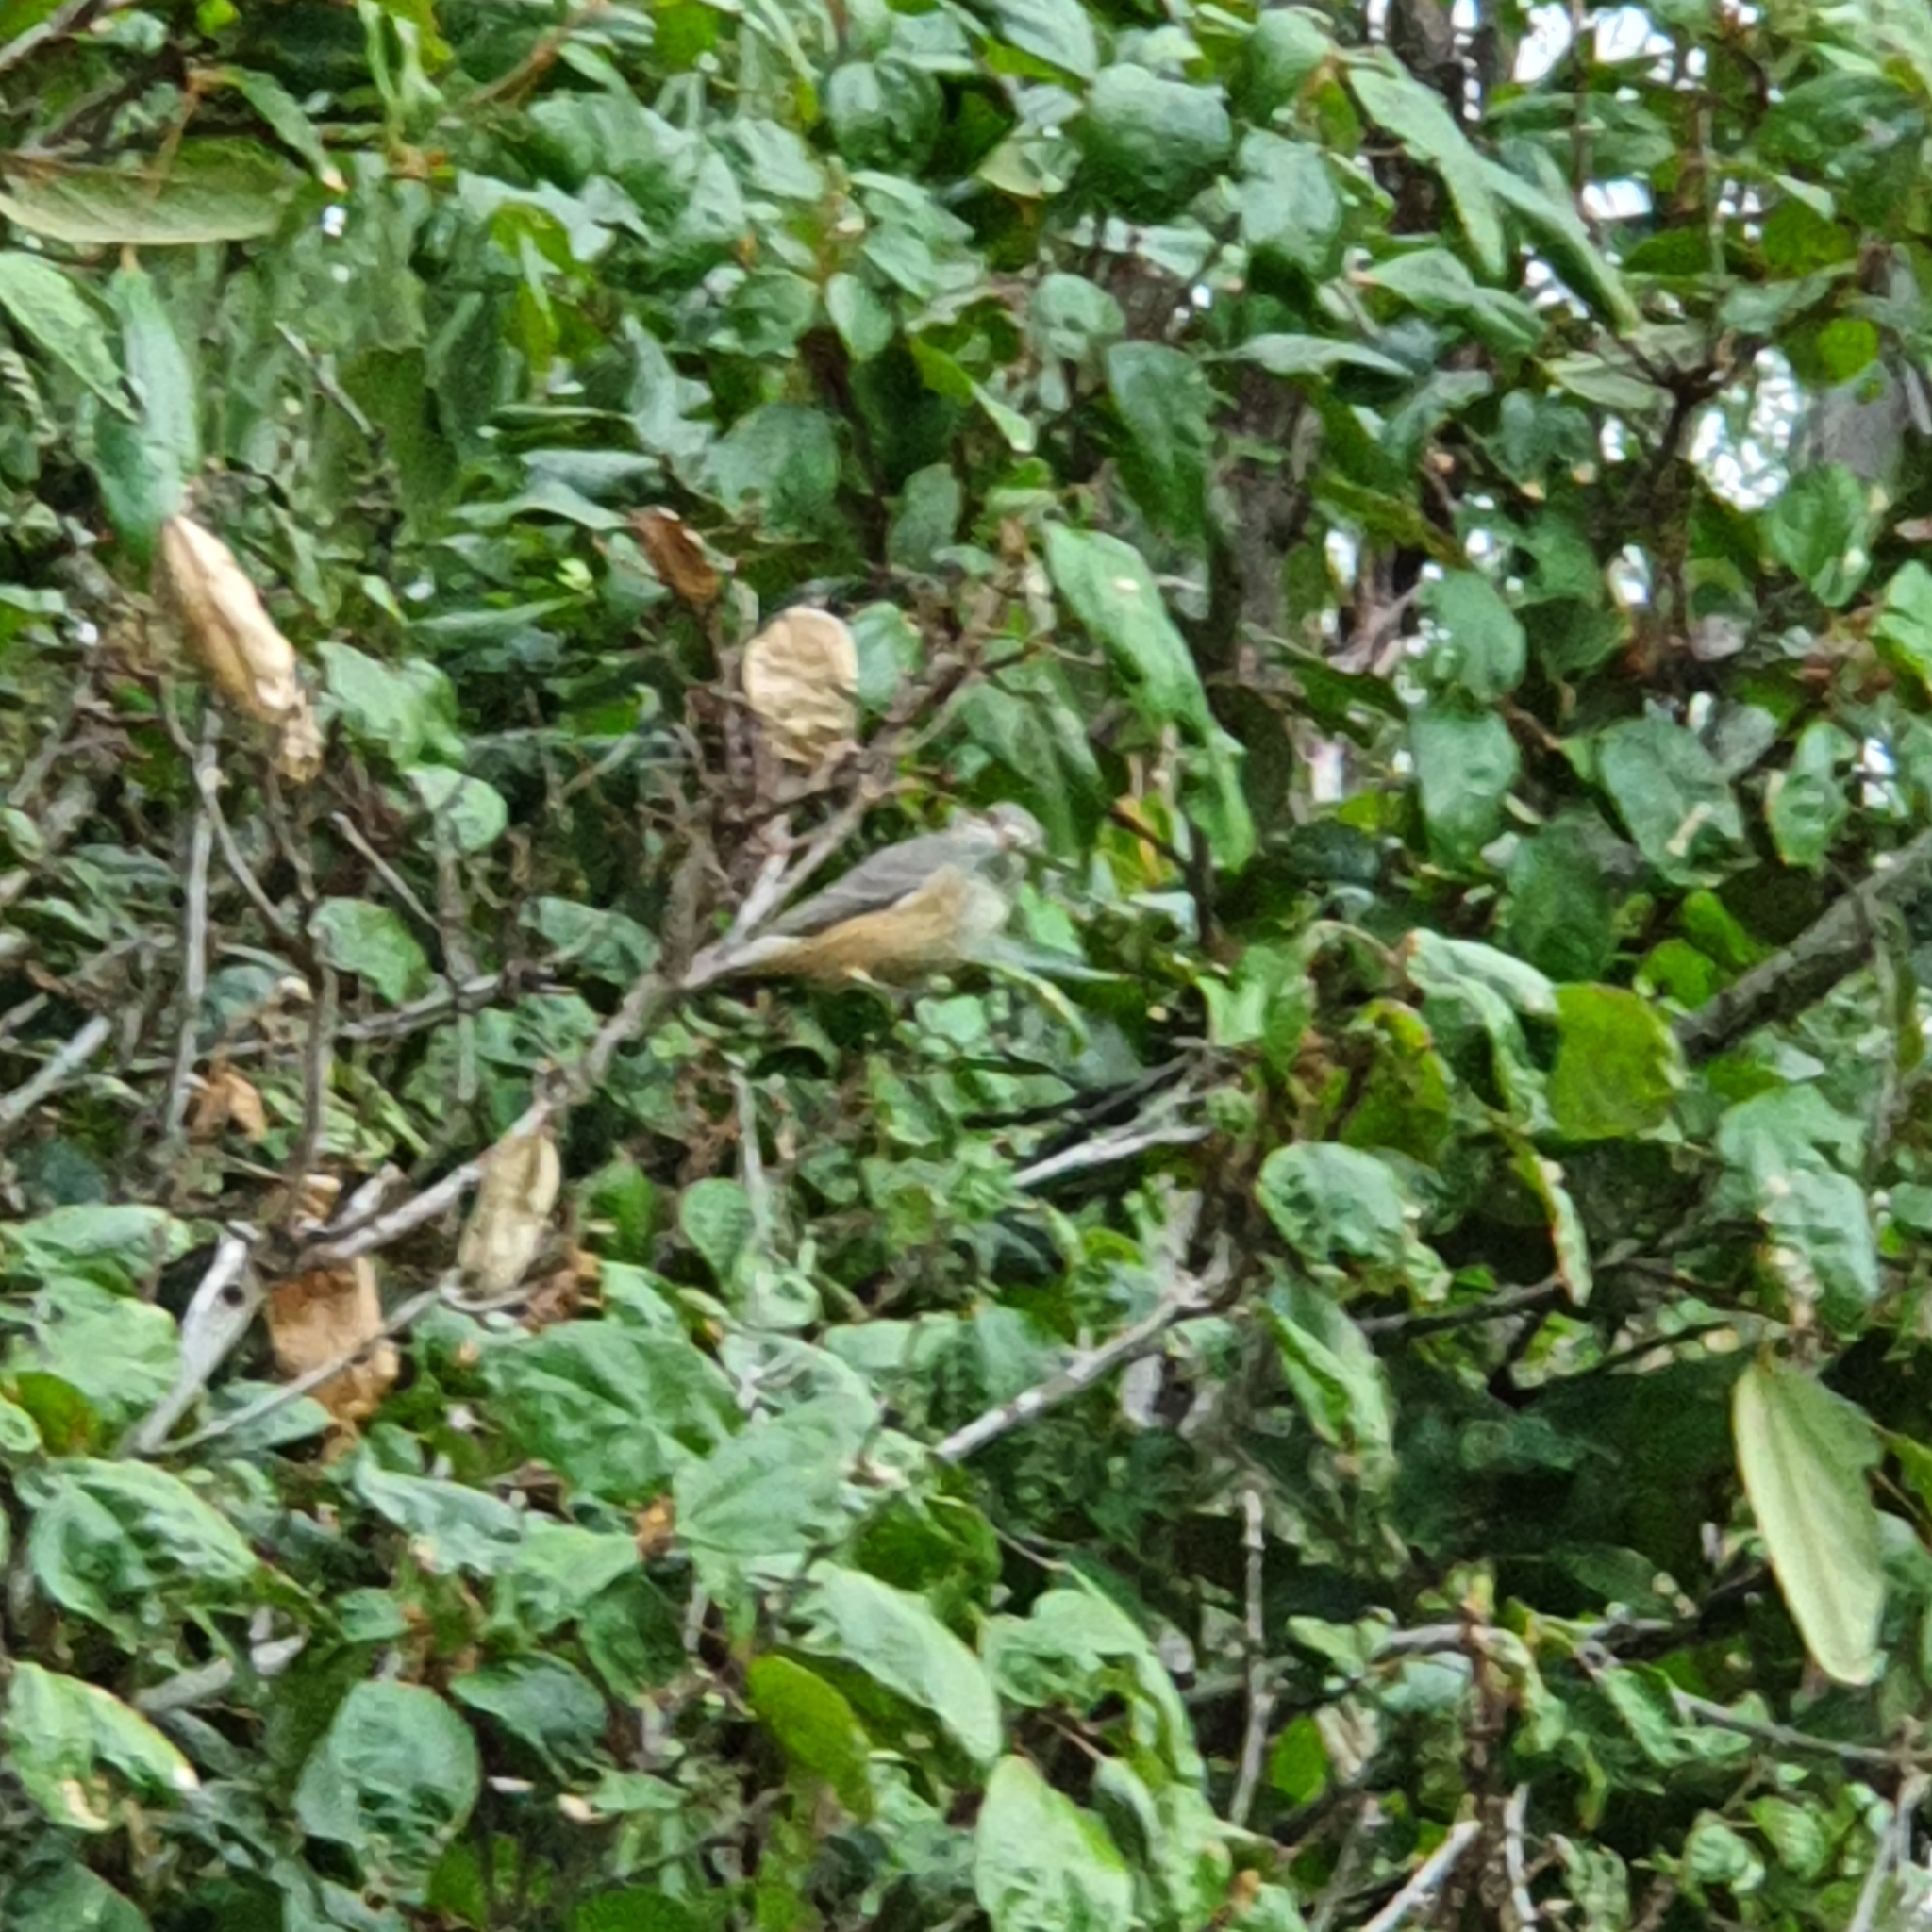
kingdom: Animalia
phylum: Chordata
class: Aves
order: Passeriformes
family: Pachycephalidae
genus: Pachycephala
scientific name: Pachycephala rufiventris
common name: Rufous whistler
